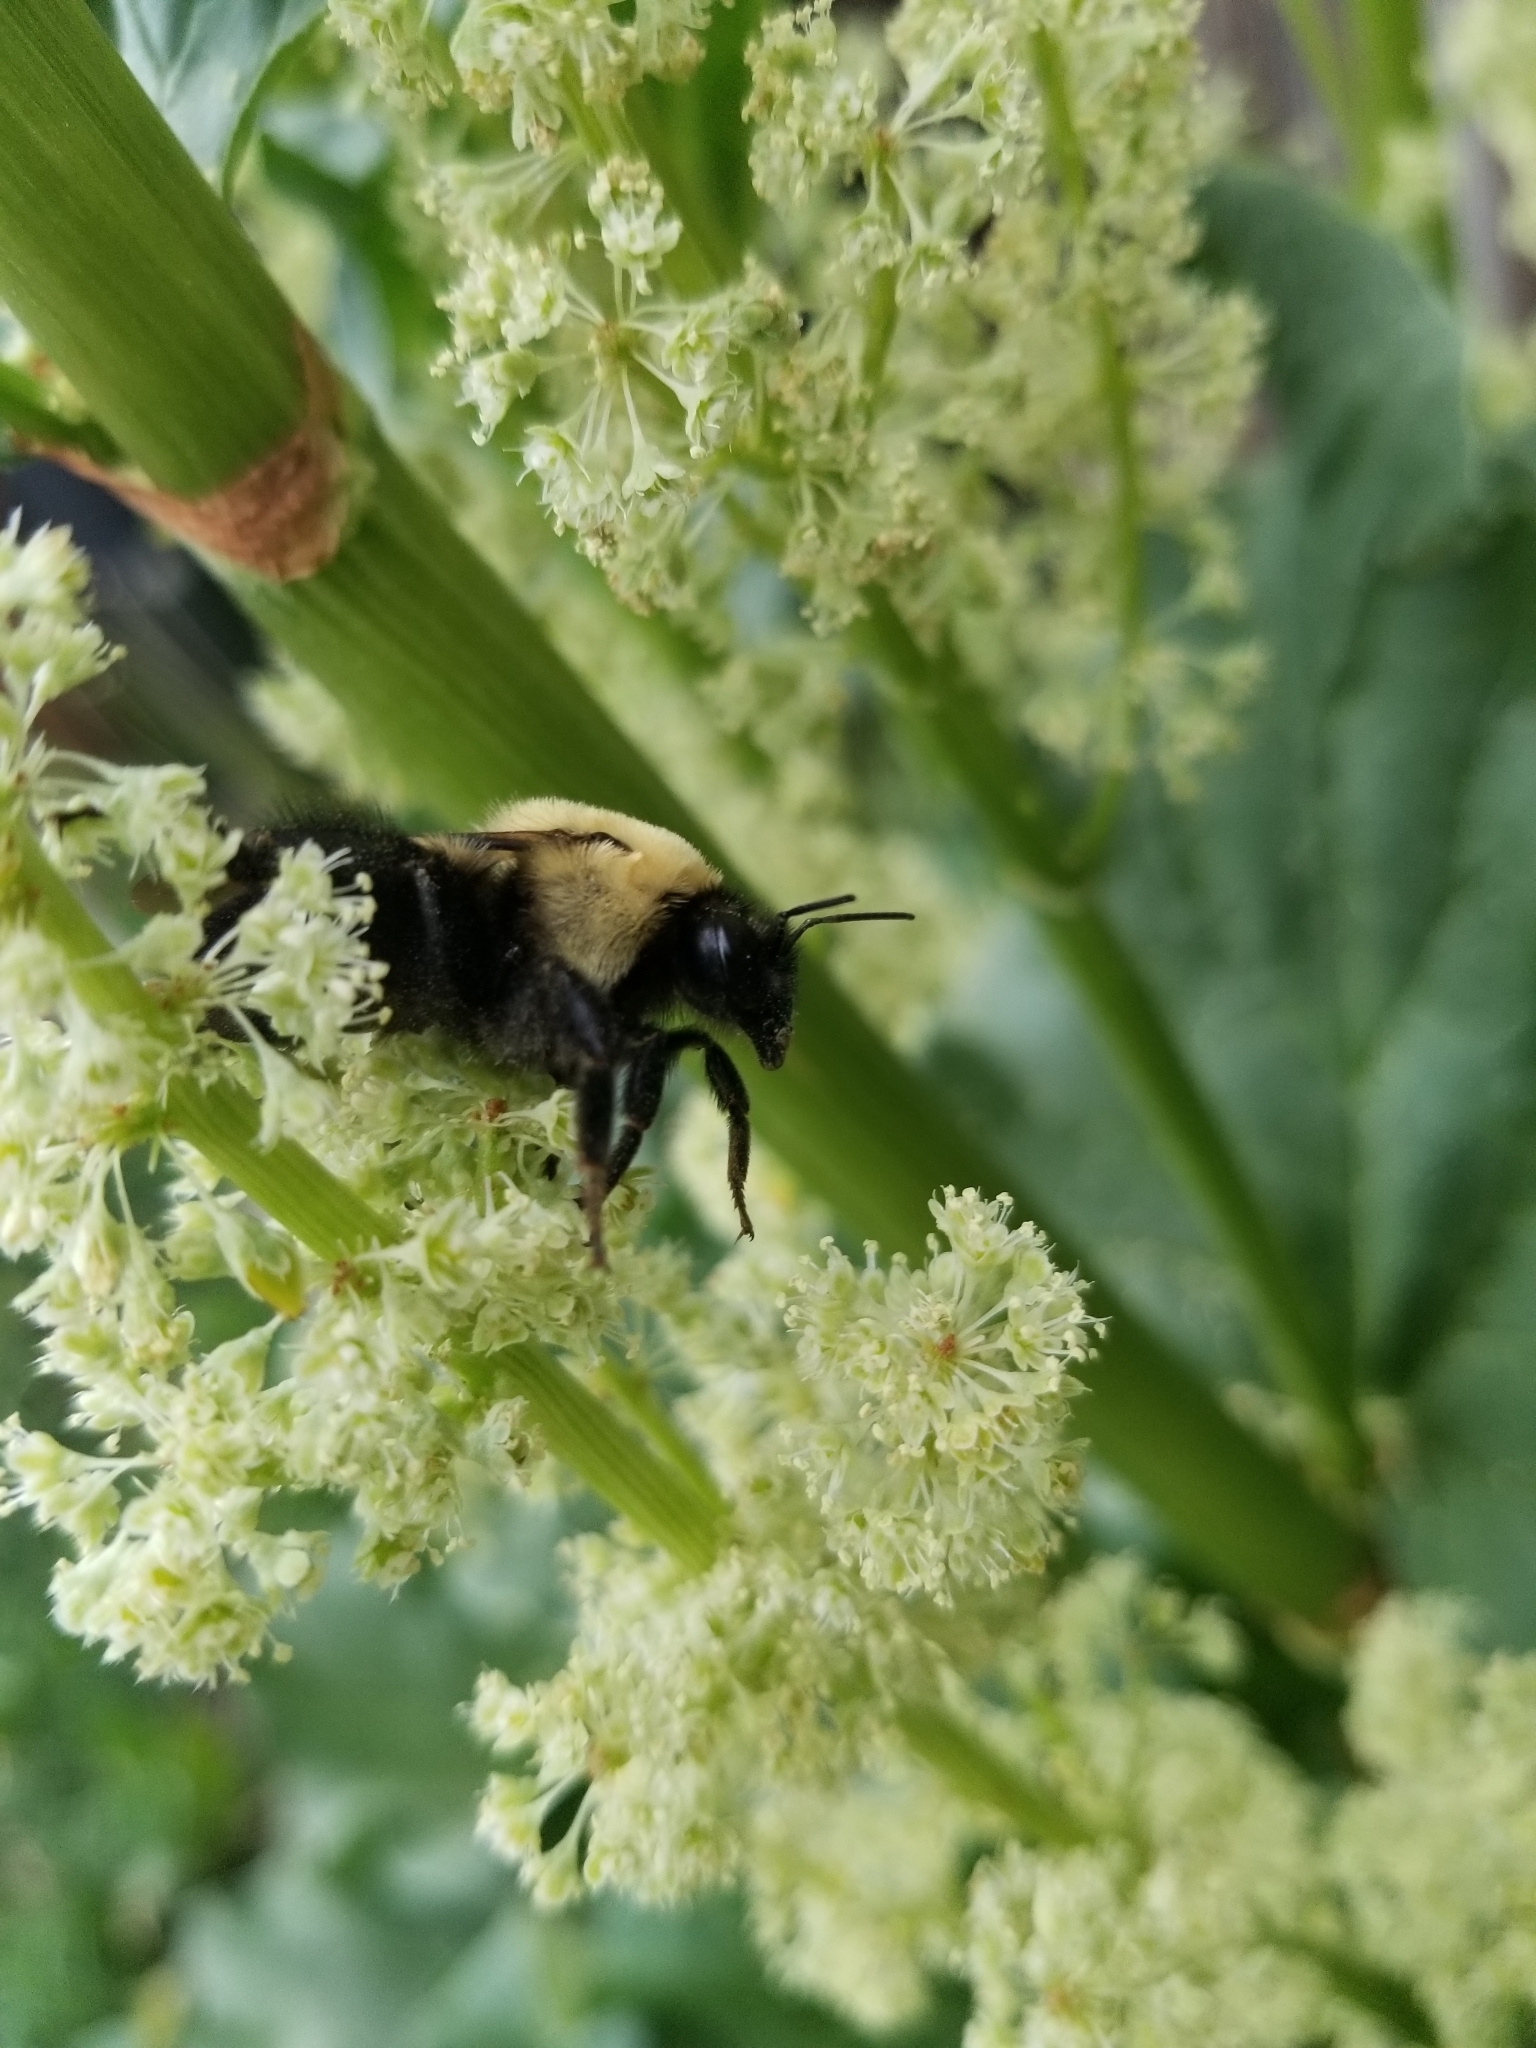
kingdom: Animalia
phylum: Arthropoda
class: Insecta
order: Hymenoptera
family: Apidae
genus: Bombus
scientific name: Bombus griseocollis
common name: Brown-belted bumble bee
